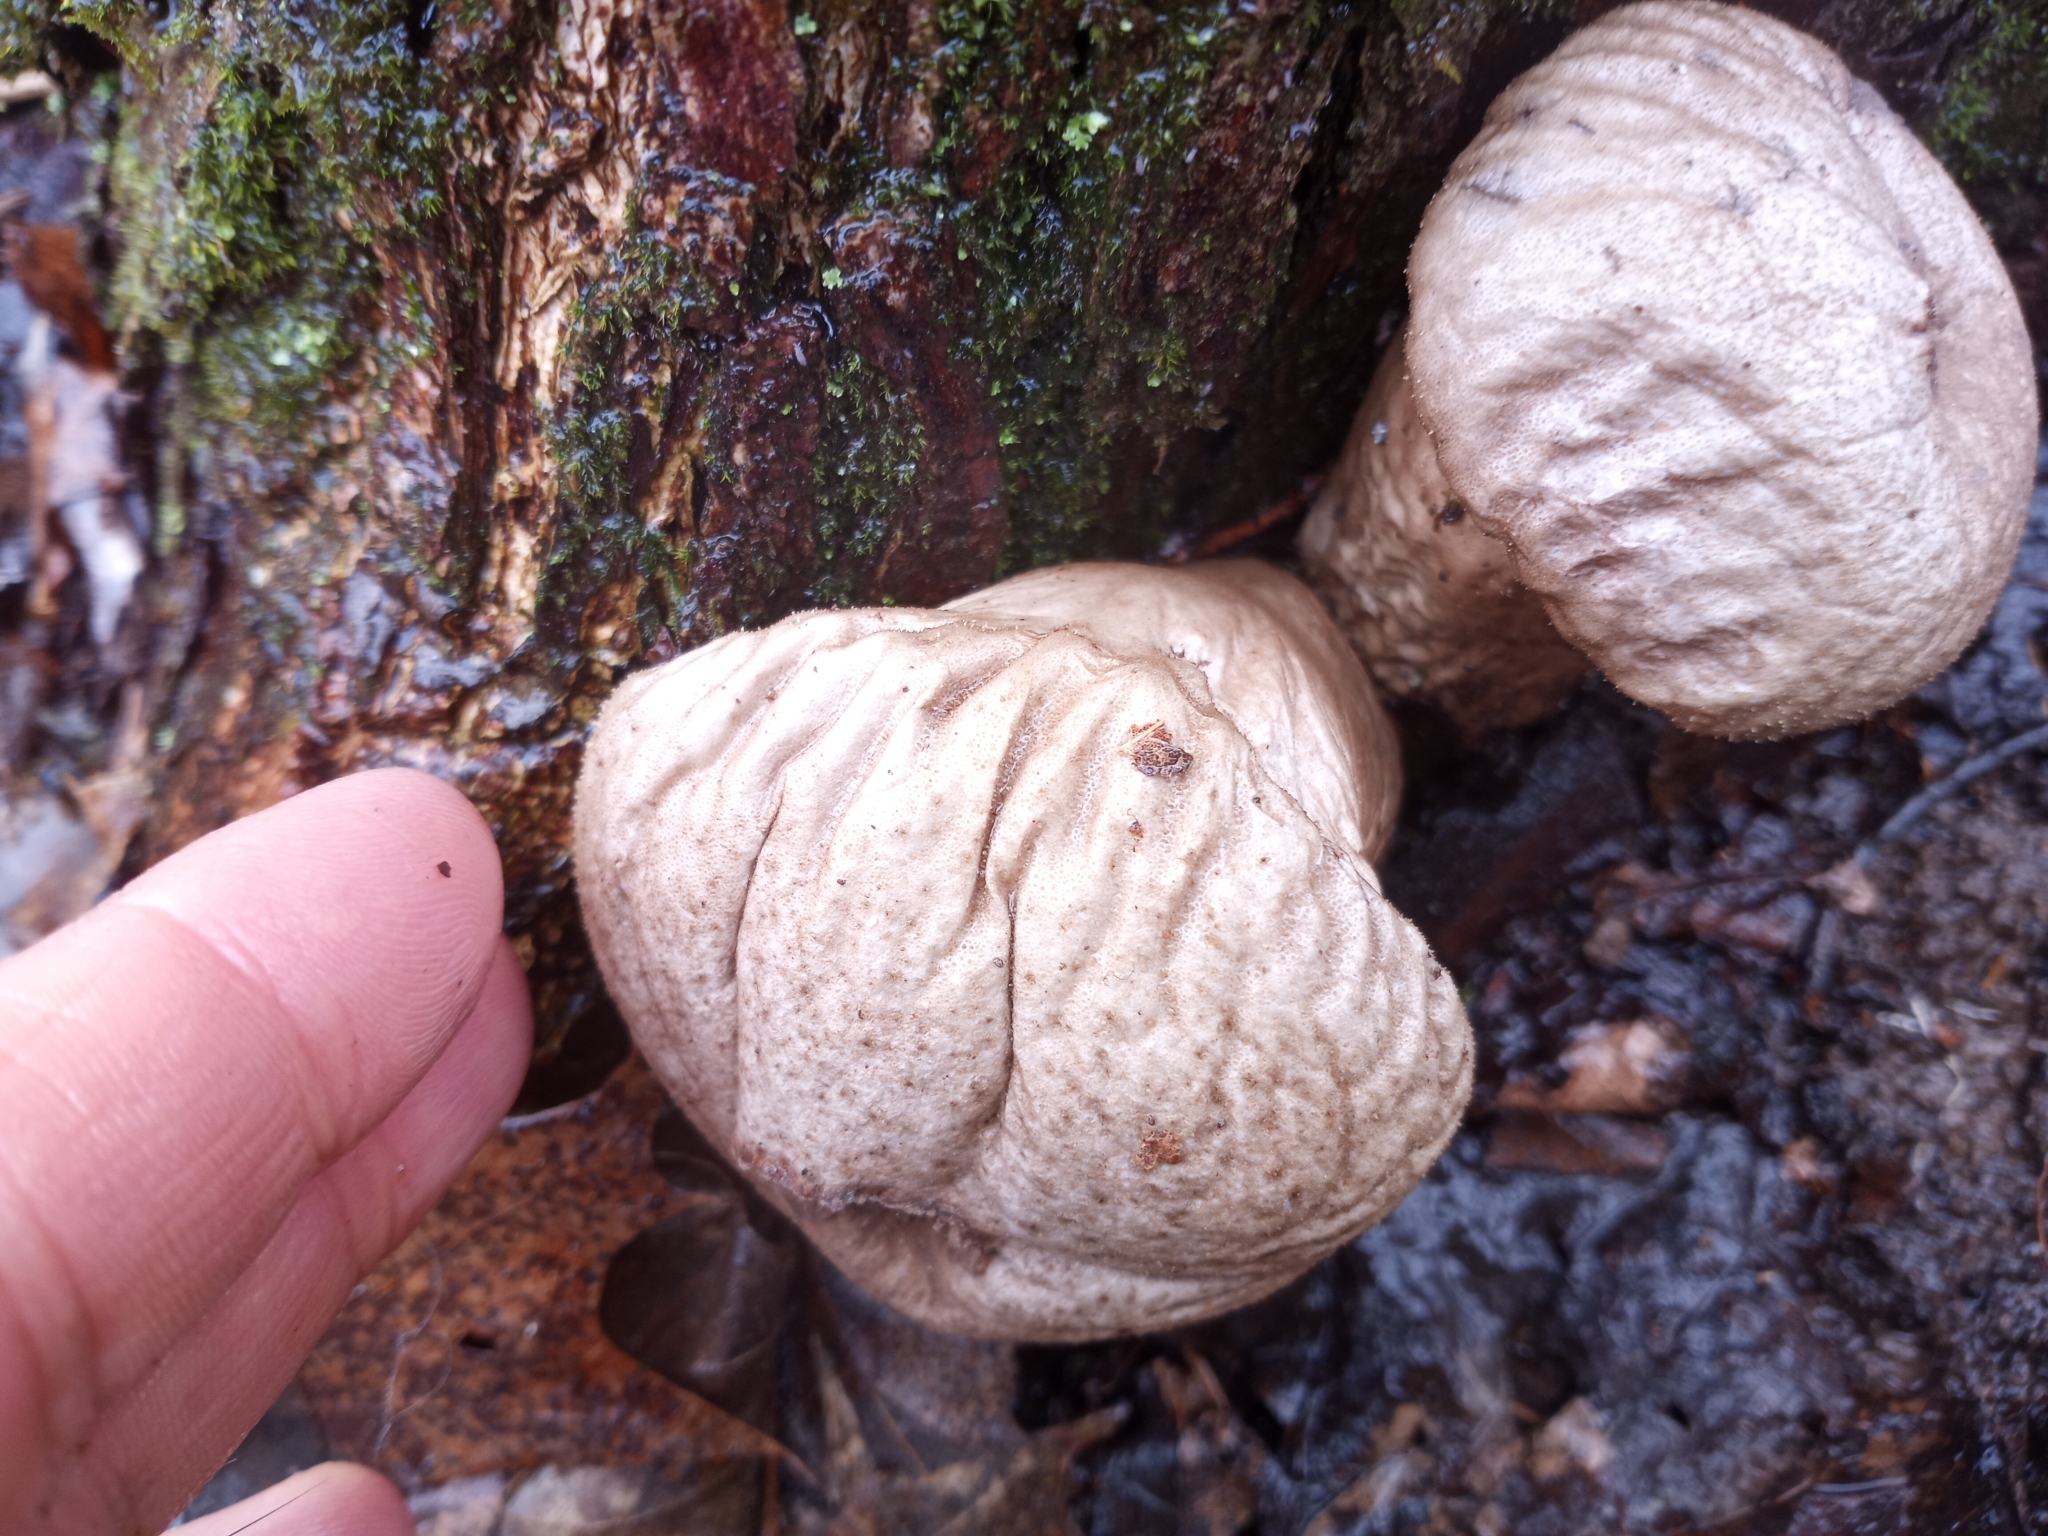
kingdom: Fungi
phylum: Basidiomycota
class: Agaricomycetes
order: Agaricales
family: Lycoperdaceae
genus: Apioperdon
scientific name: Apioperdon pyriforme
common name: Pear-shaped puffball
